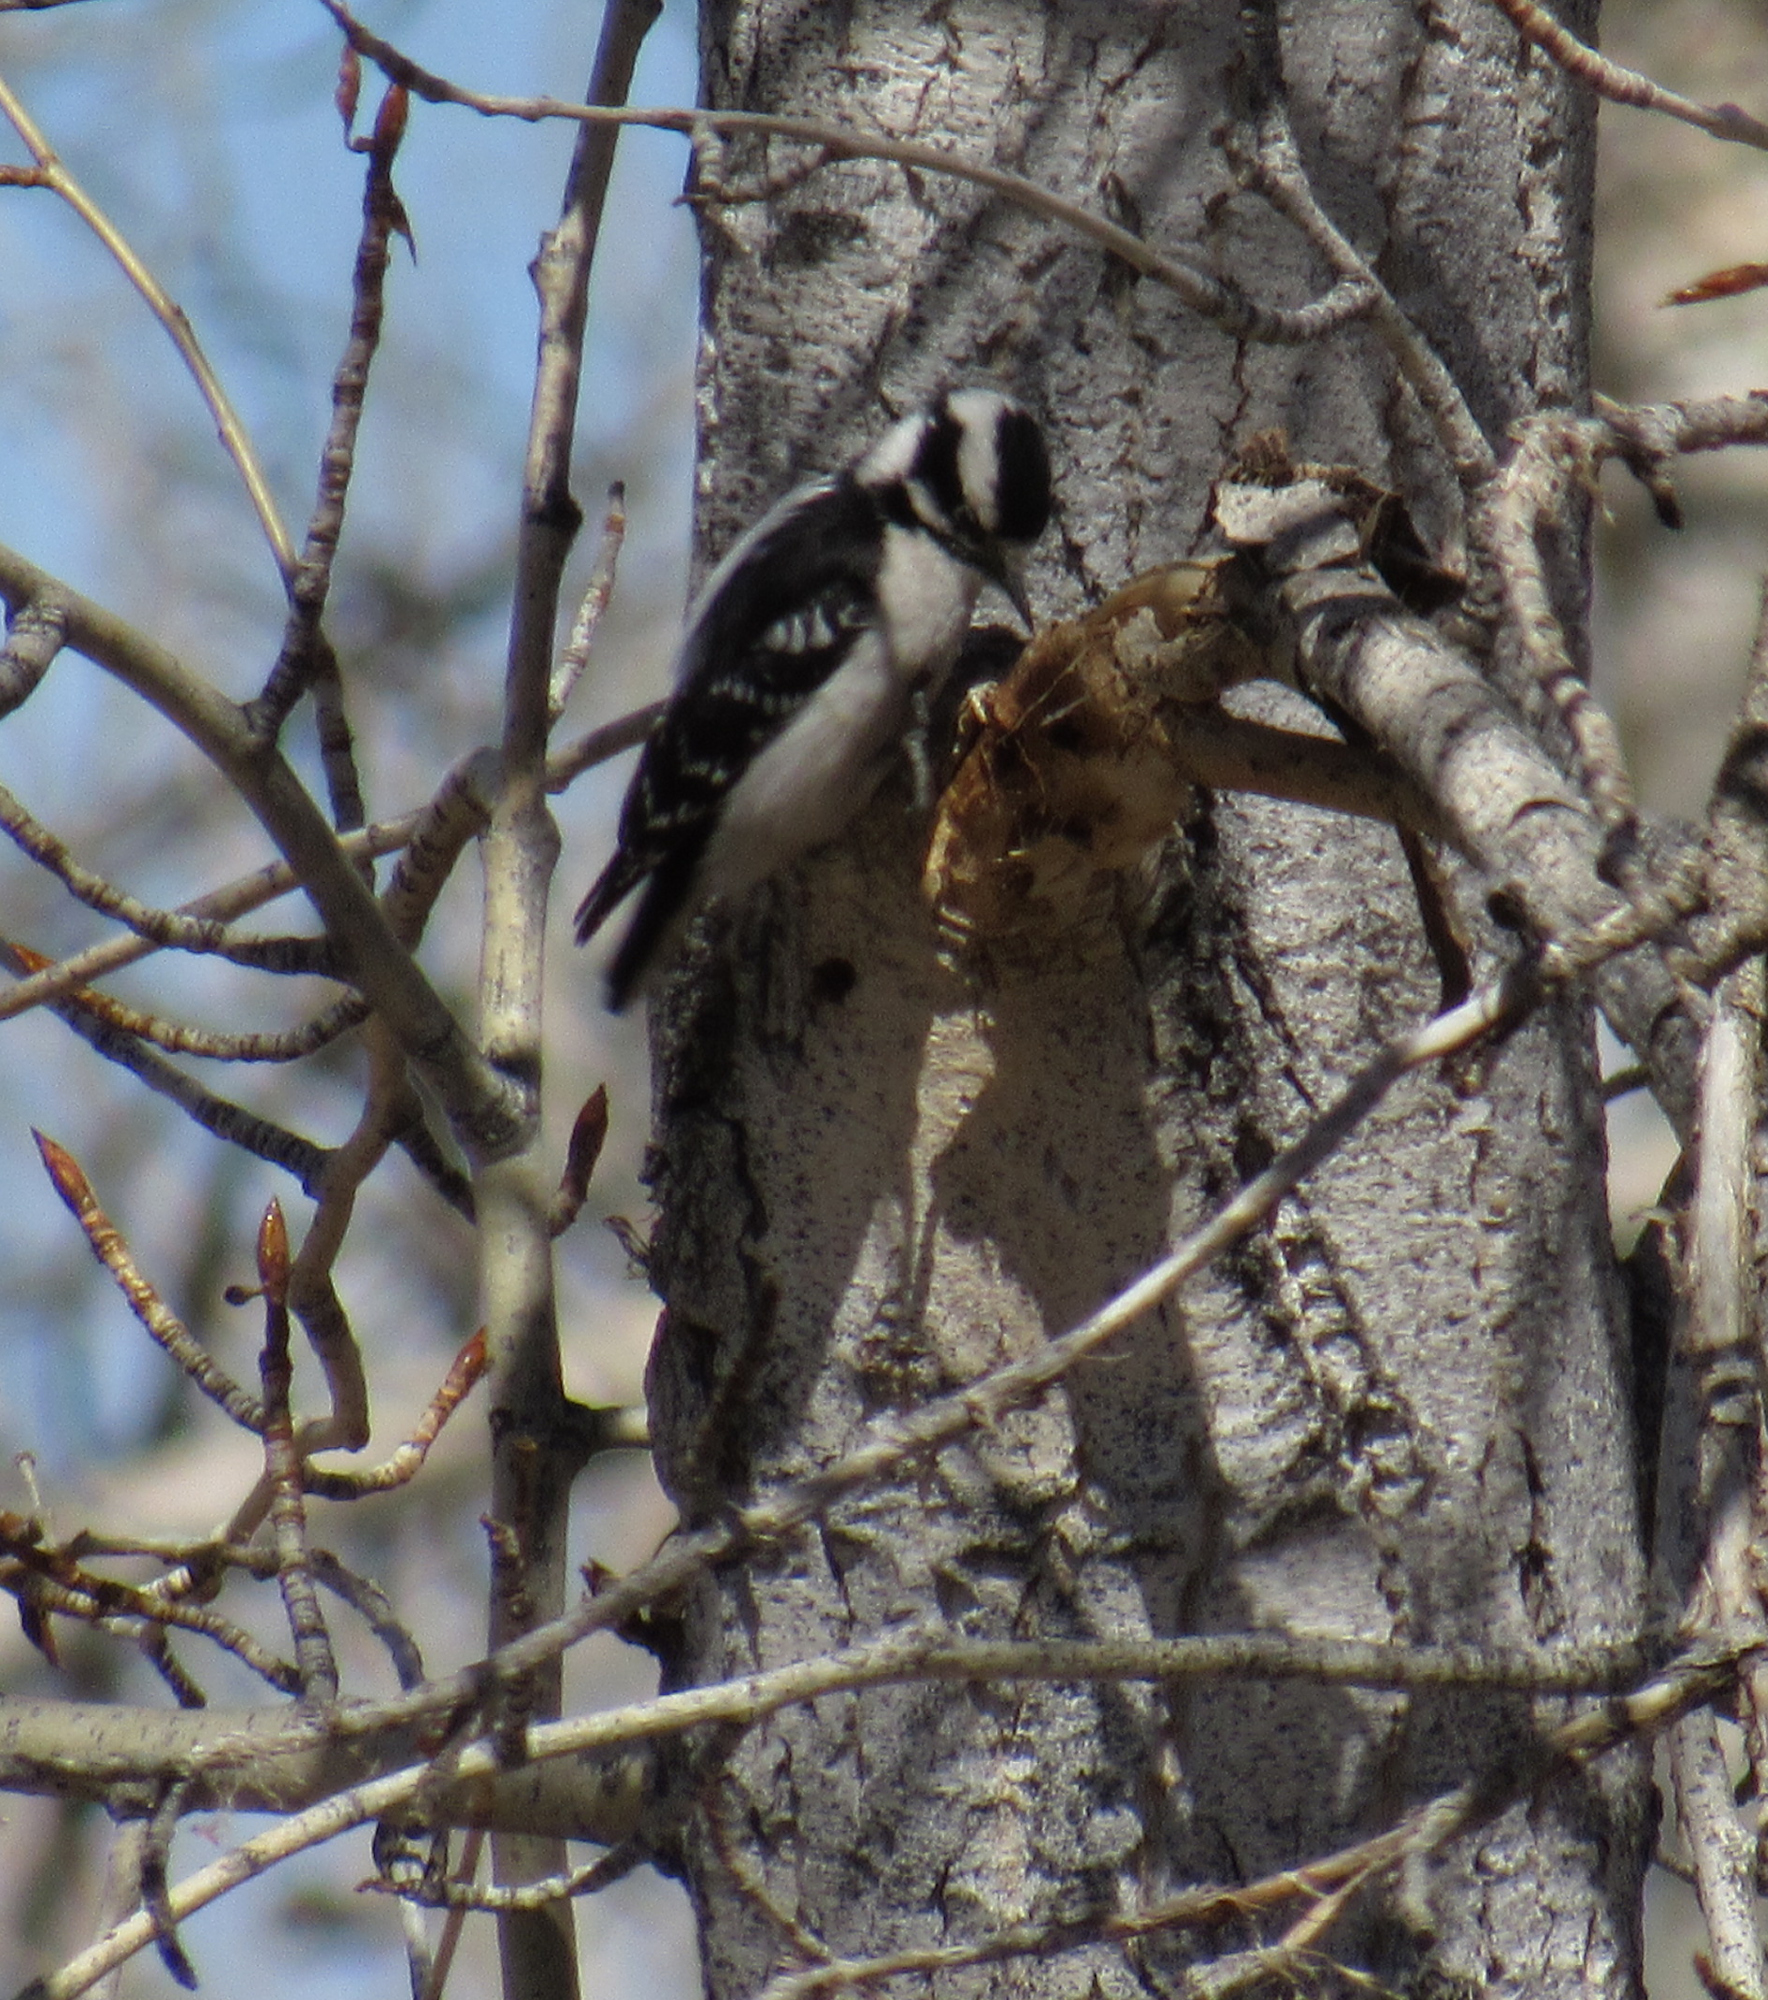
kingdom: Animalia
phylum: Chordata
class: Aves
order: Piciformes
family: Picidae
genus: Dryobates
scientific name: Dryobates pubescens
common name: Downy woodpecker
